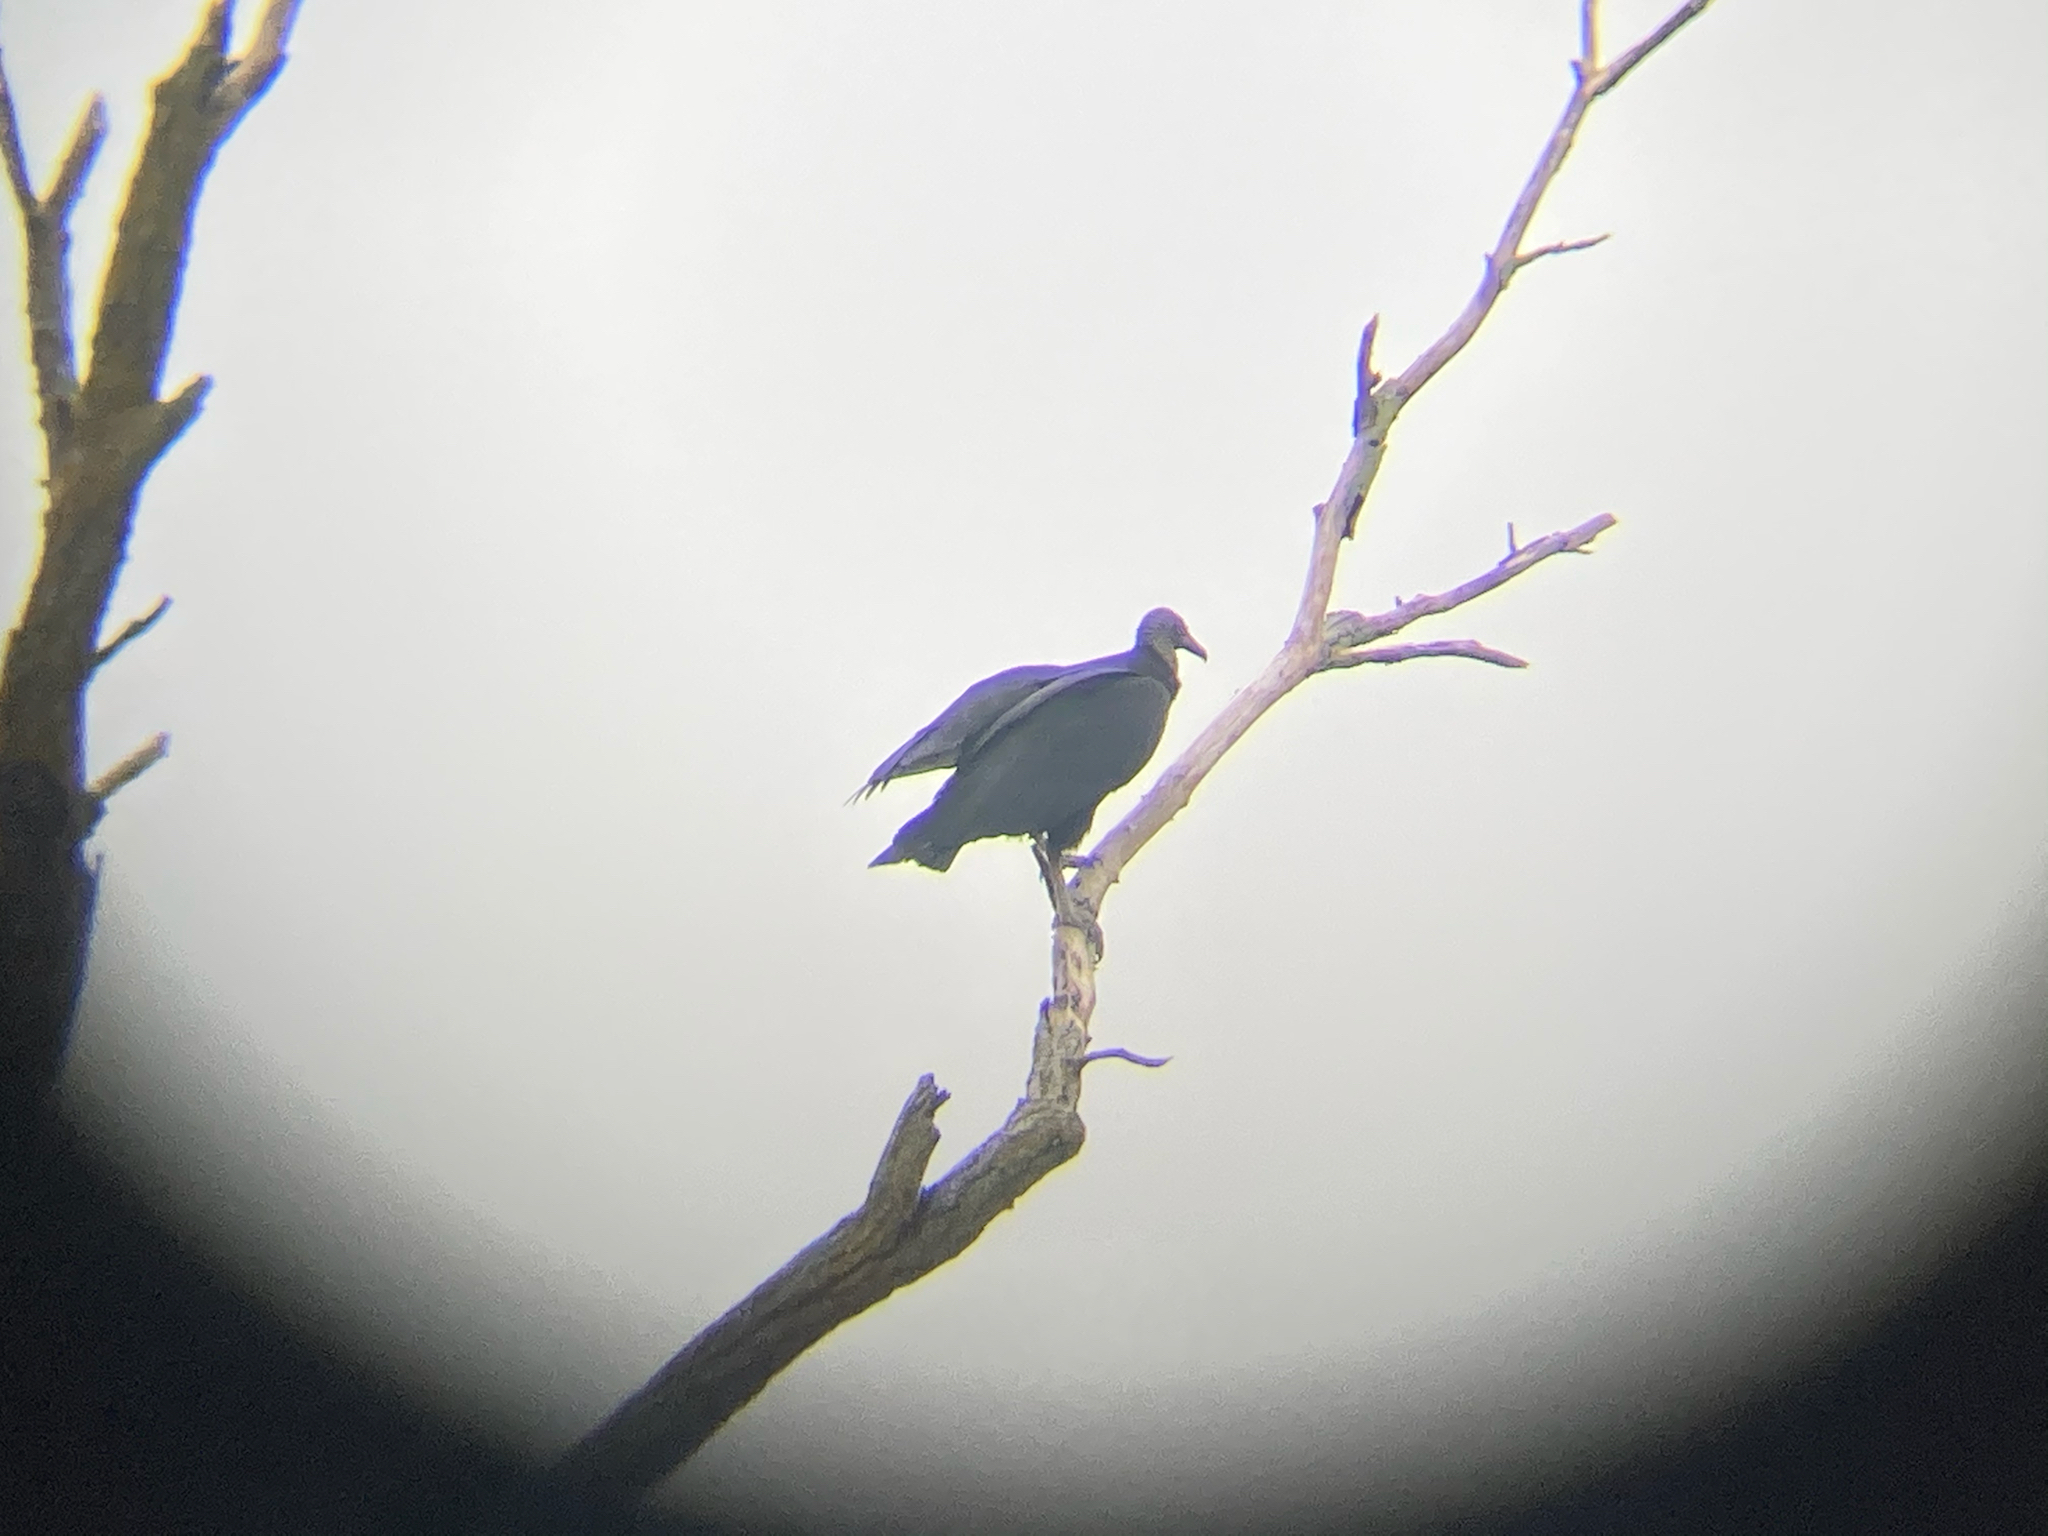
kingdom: Animalia
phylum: Chordata
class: Aves
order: Accipitriformes
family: Cathartidae
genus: Coragyps
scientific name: Coragyps atratus
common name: Black vulture
